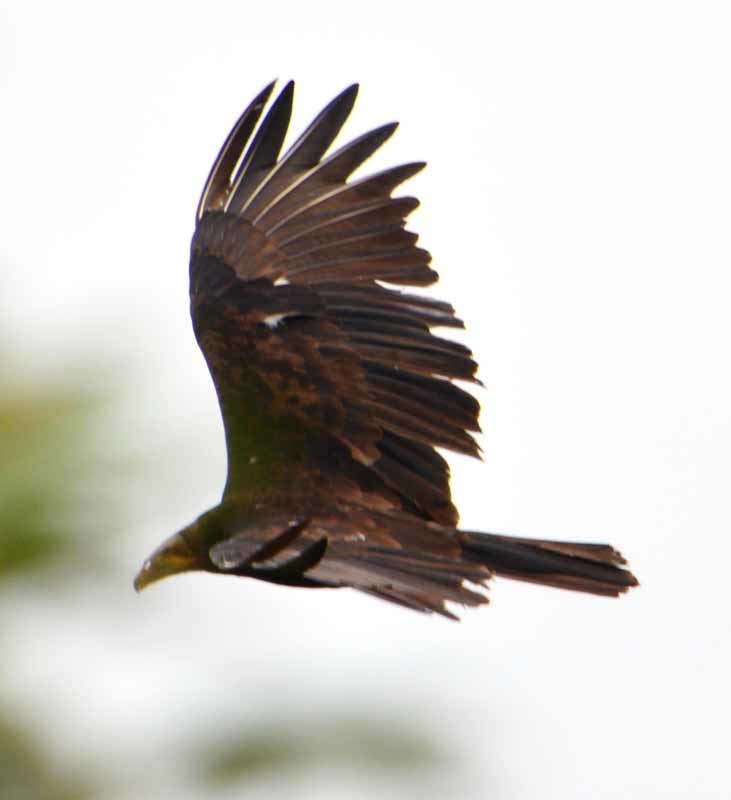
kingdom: Animalia
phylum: Chordata
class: Aves
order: Accipitriformes
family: Cathartidae
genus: Cathartes
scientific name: Cathartes burrovianus
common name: Lesser yellow-headed vulture
